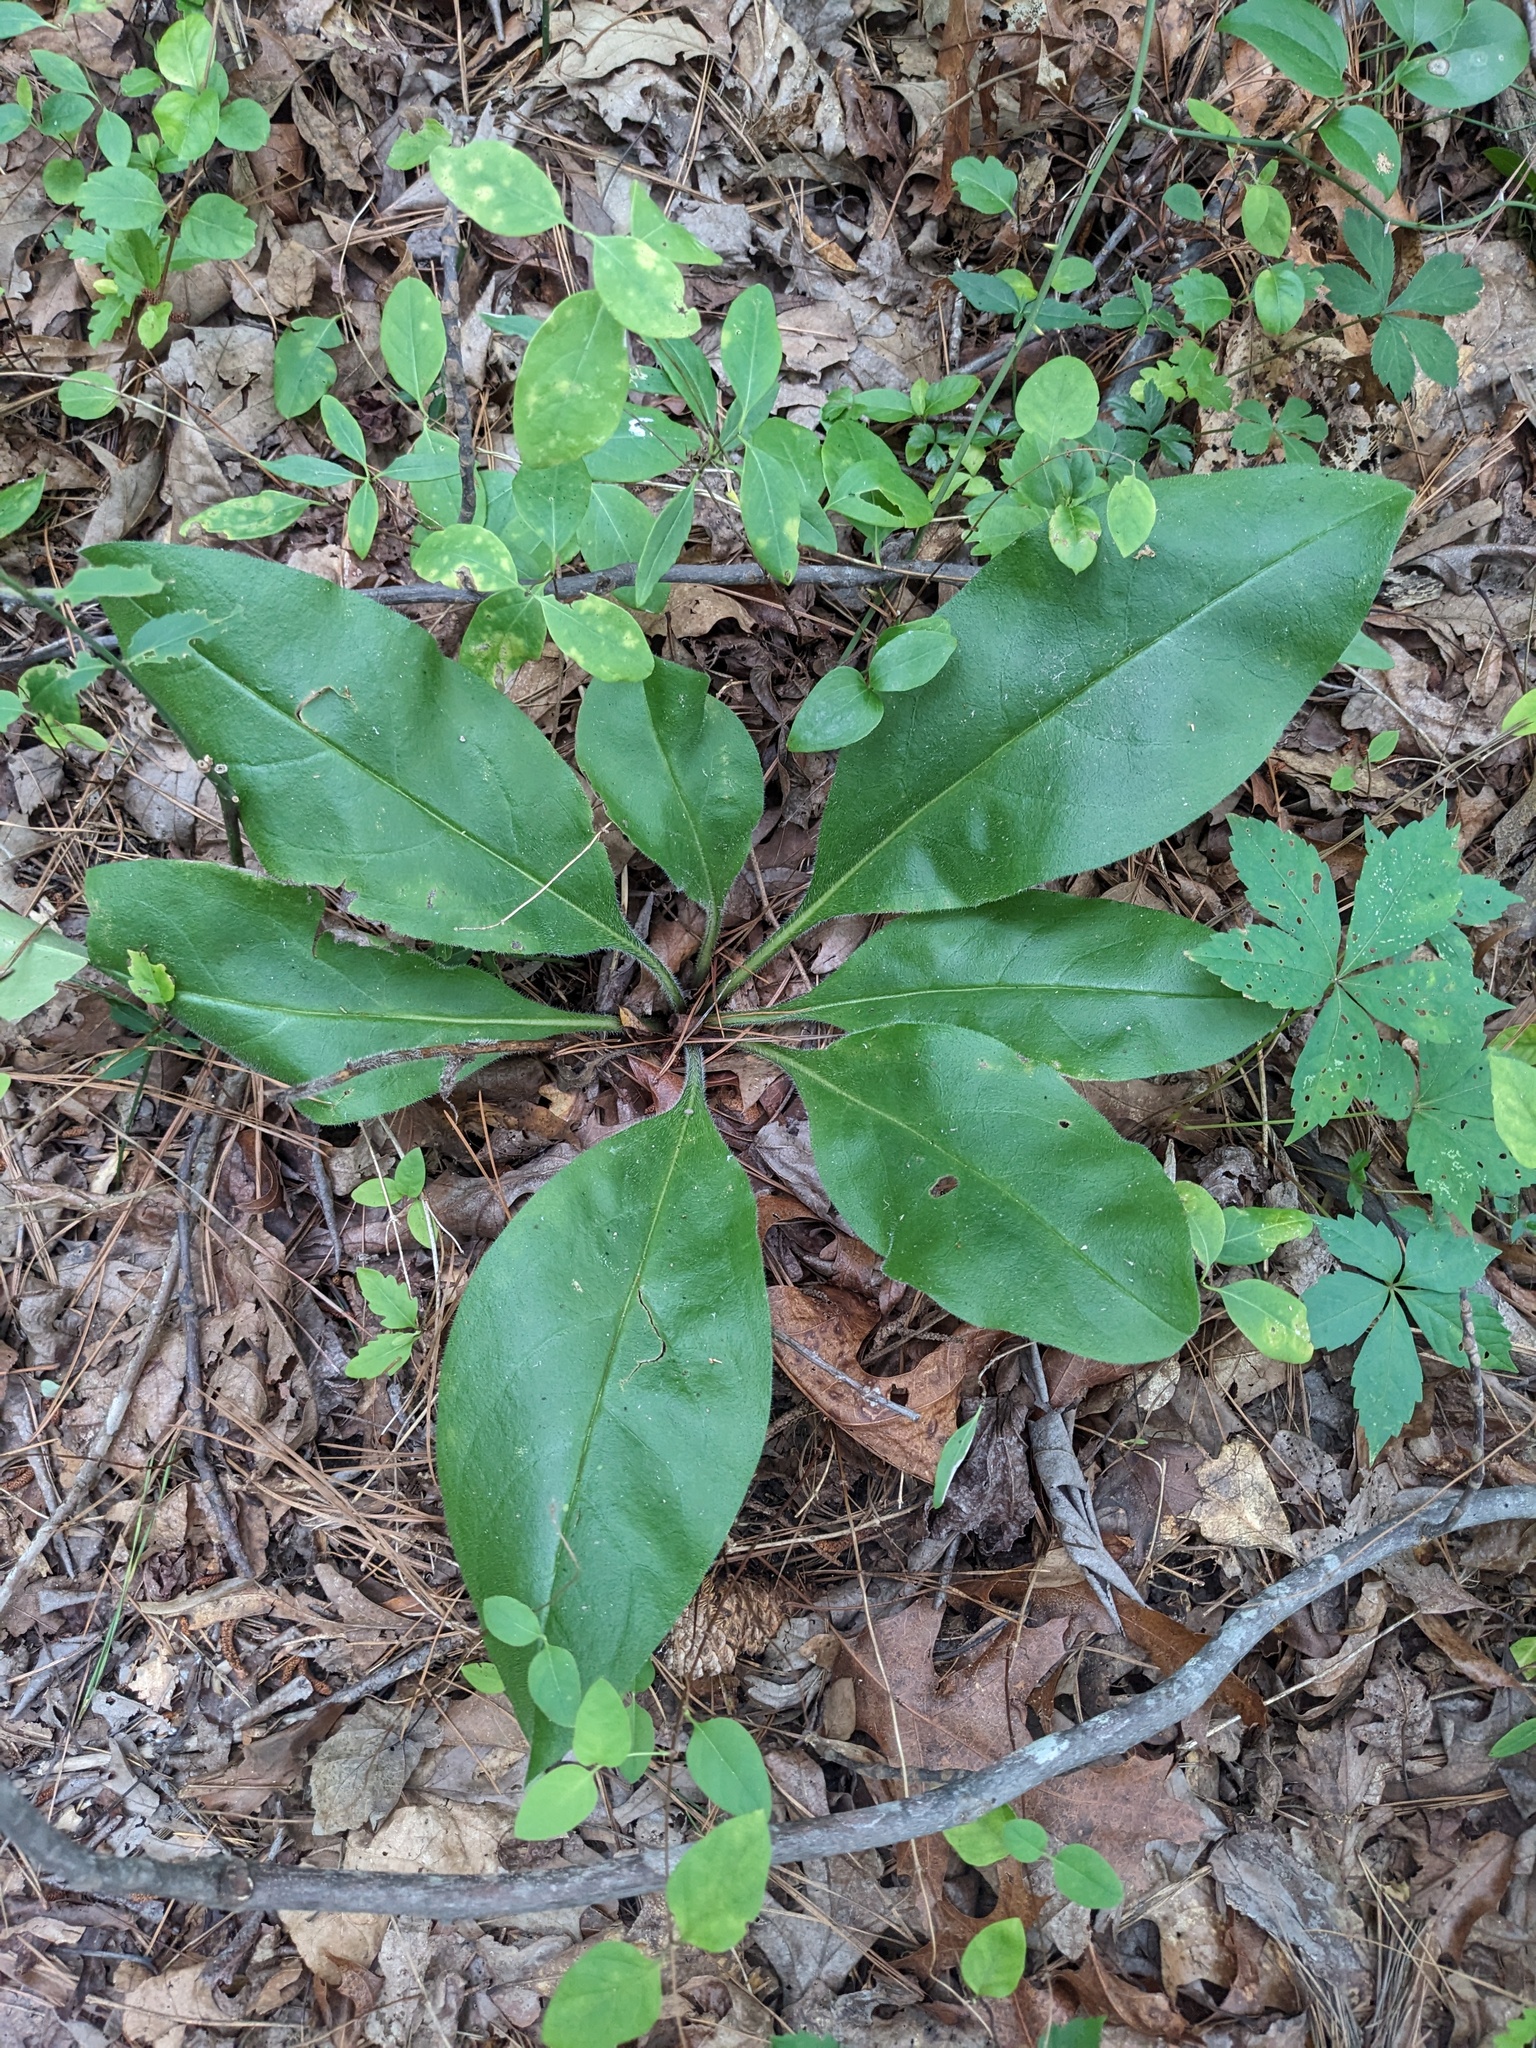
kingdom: Plantae
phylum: Tracheophyta
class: Magnoliopsida
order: Boraginales
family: Boraginaceae
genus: Andersonglossum
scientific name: Andersonglossum virginianum
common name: Wild comfrey
